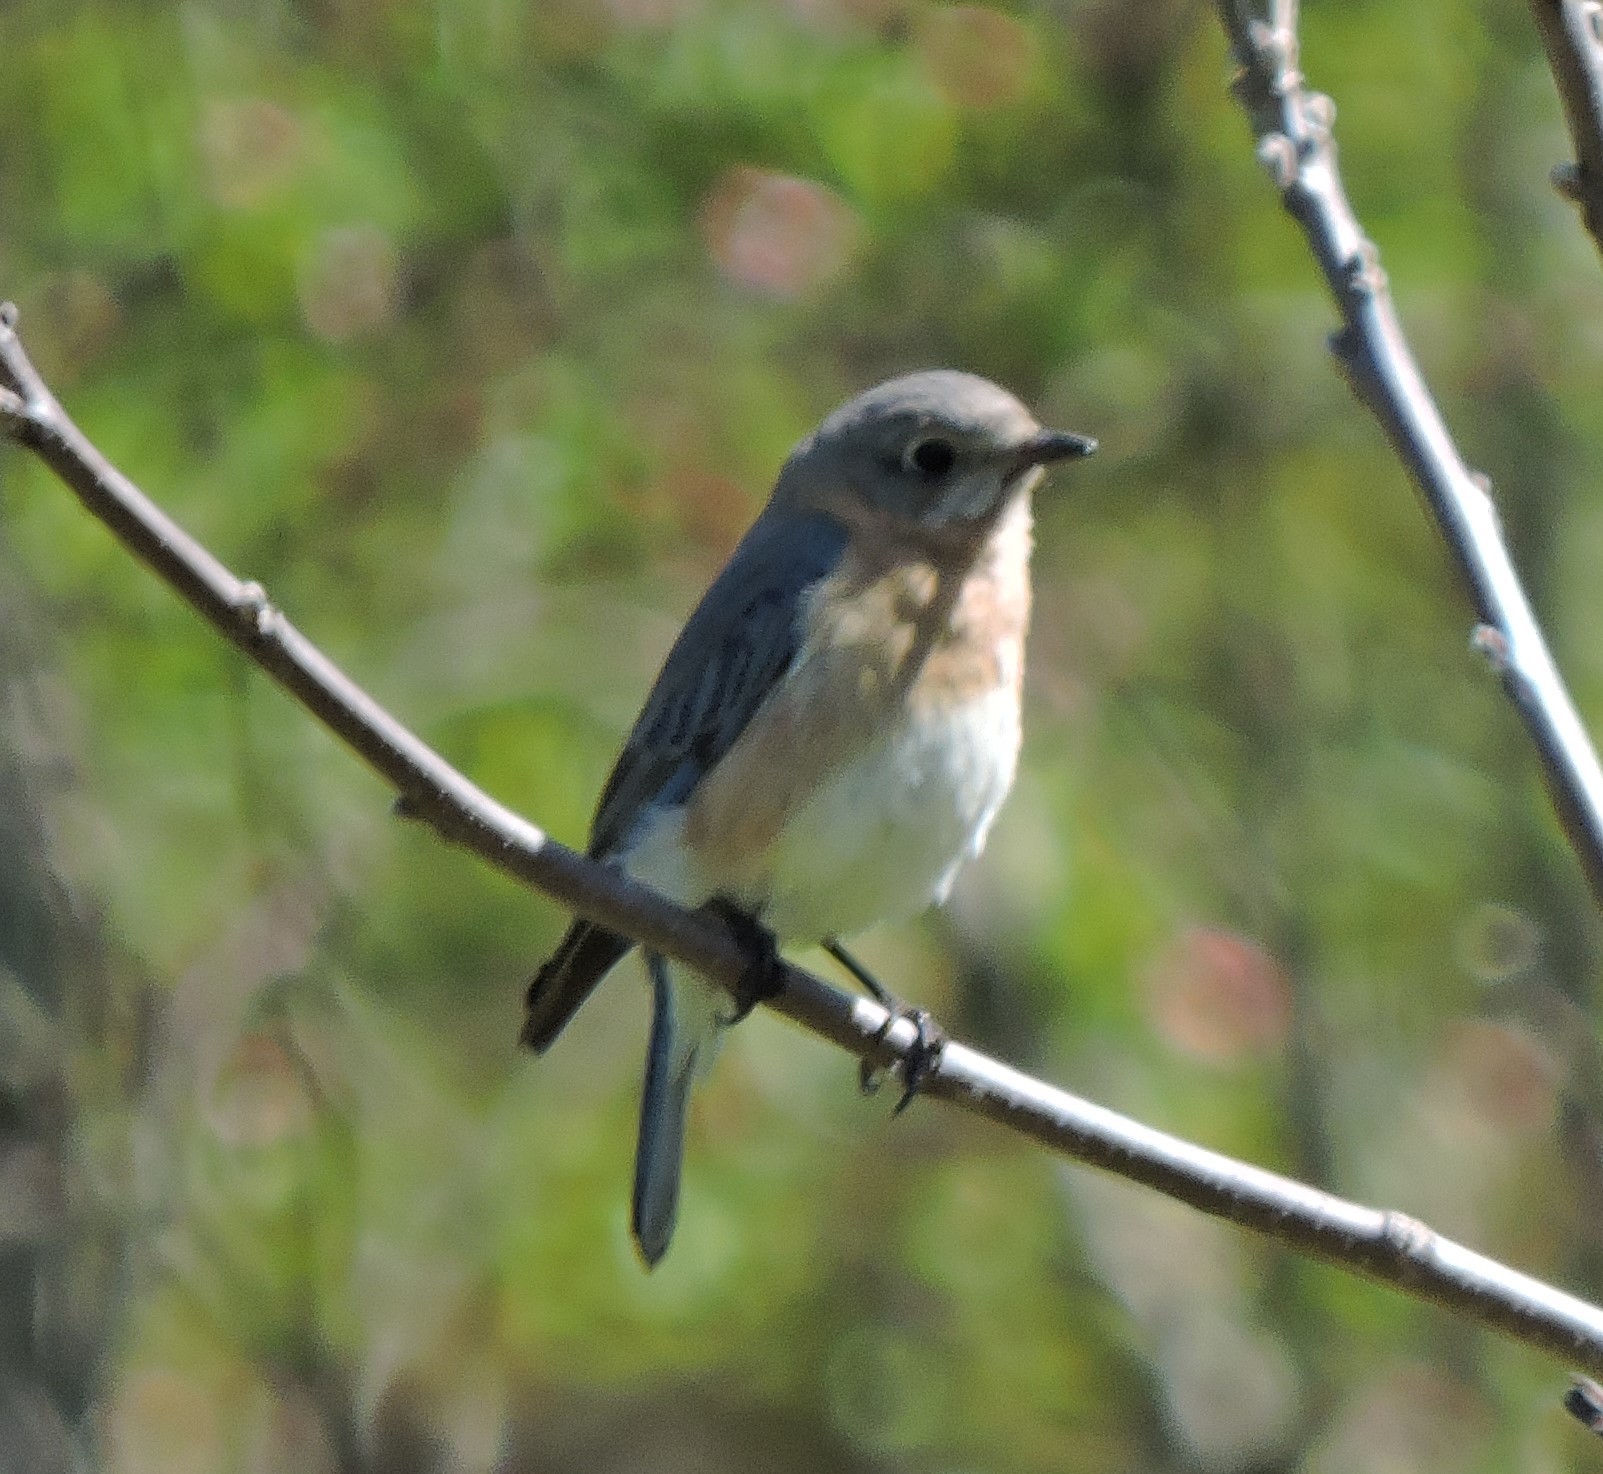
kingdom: Animalia
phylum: Chordata
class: Aves
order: Passeriformes
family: Turdidae
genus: Sialia
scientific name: Sialia sialis
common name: Eastern bluebird
